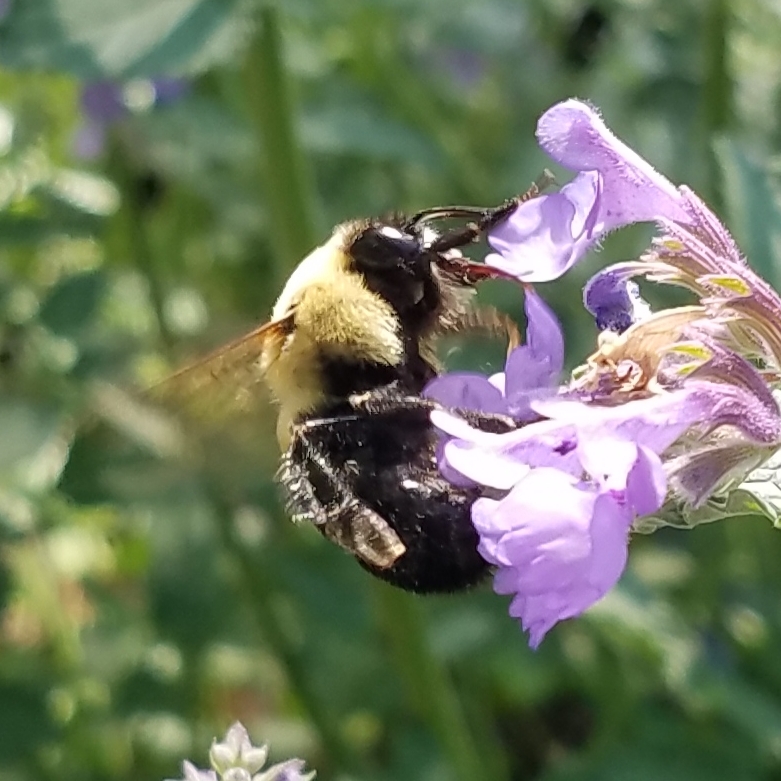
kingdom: Animalia
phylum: Arthropoda
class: Insecta
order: Hymenoptera
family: Apidae
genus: Bombus
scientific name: Bombus griseocollis
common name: Brown-belted bumble bee
